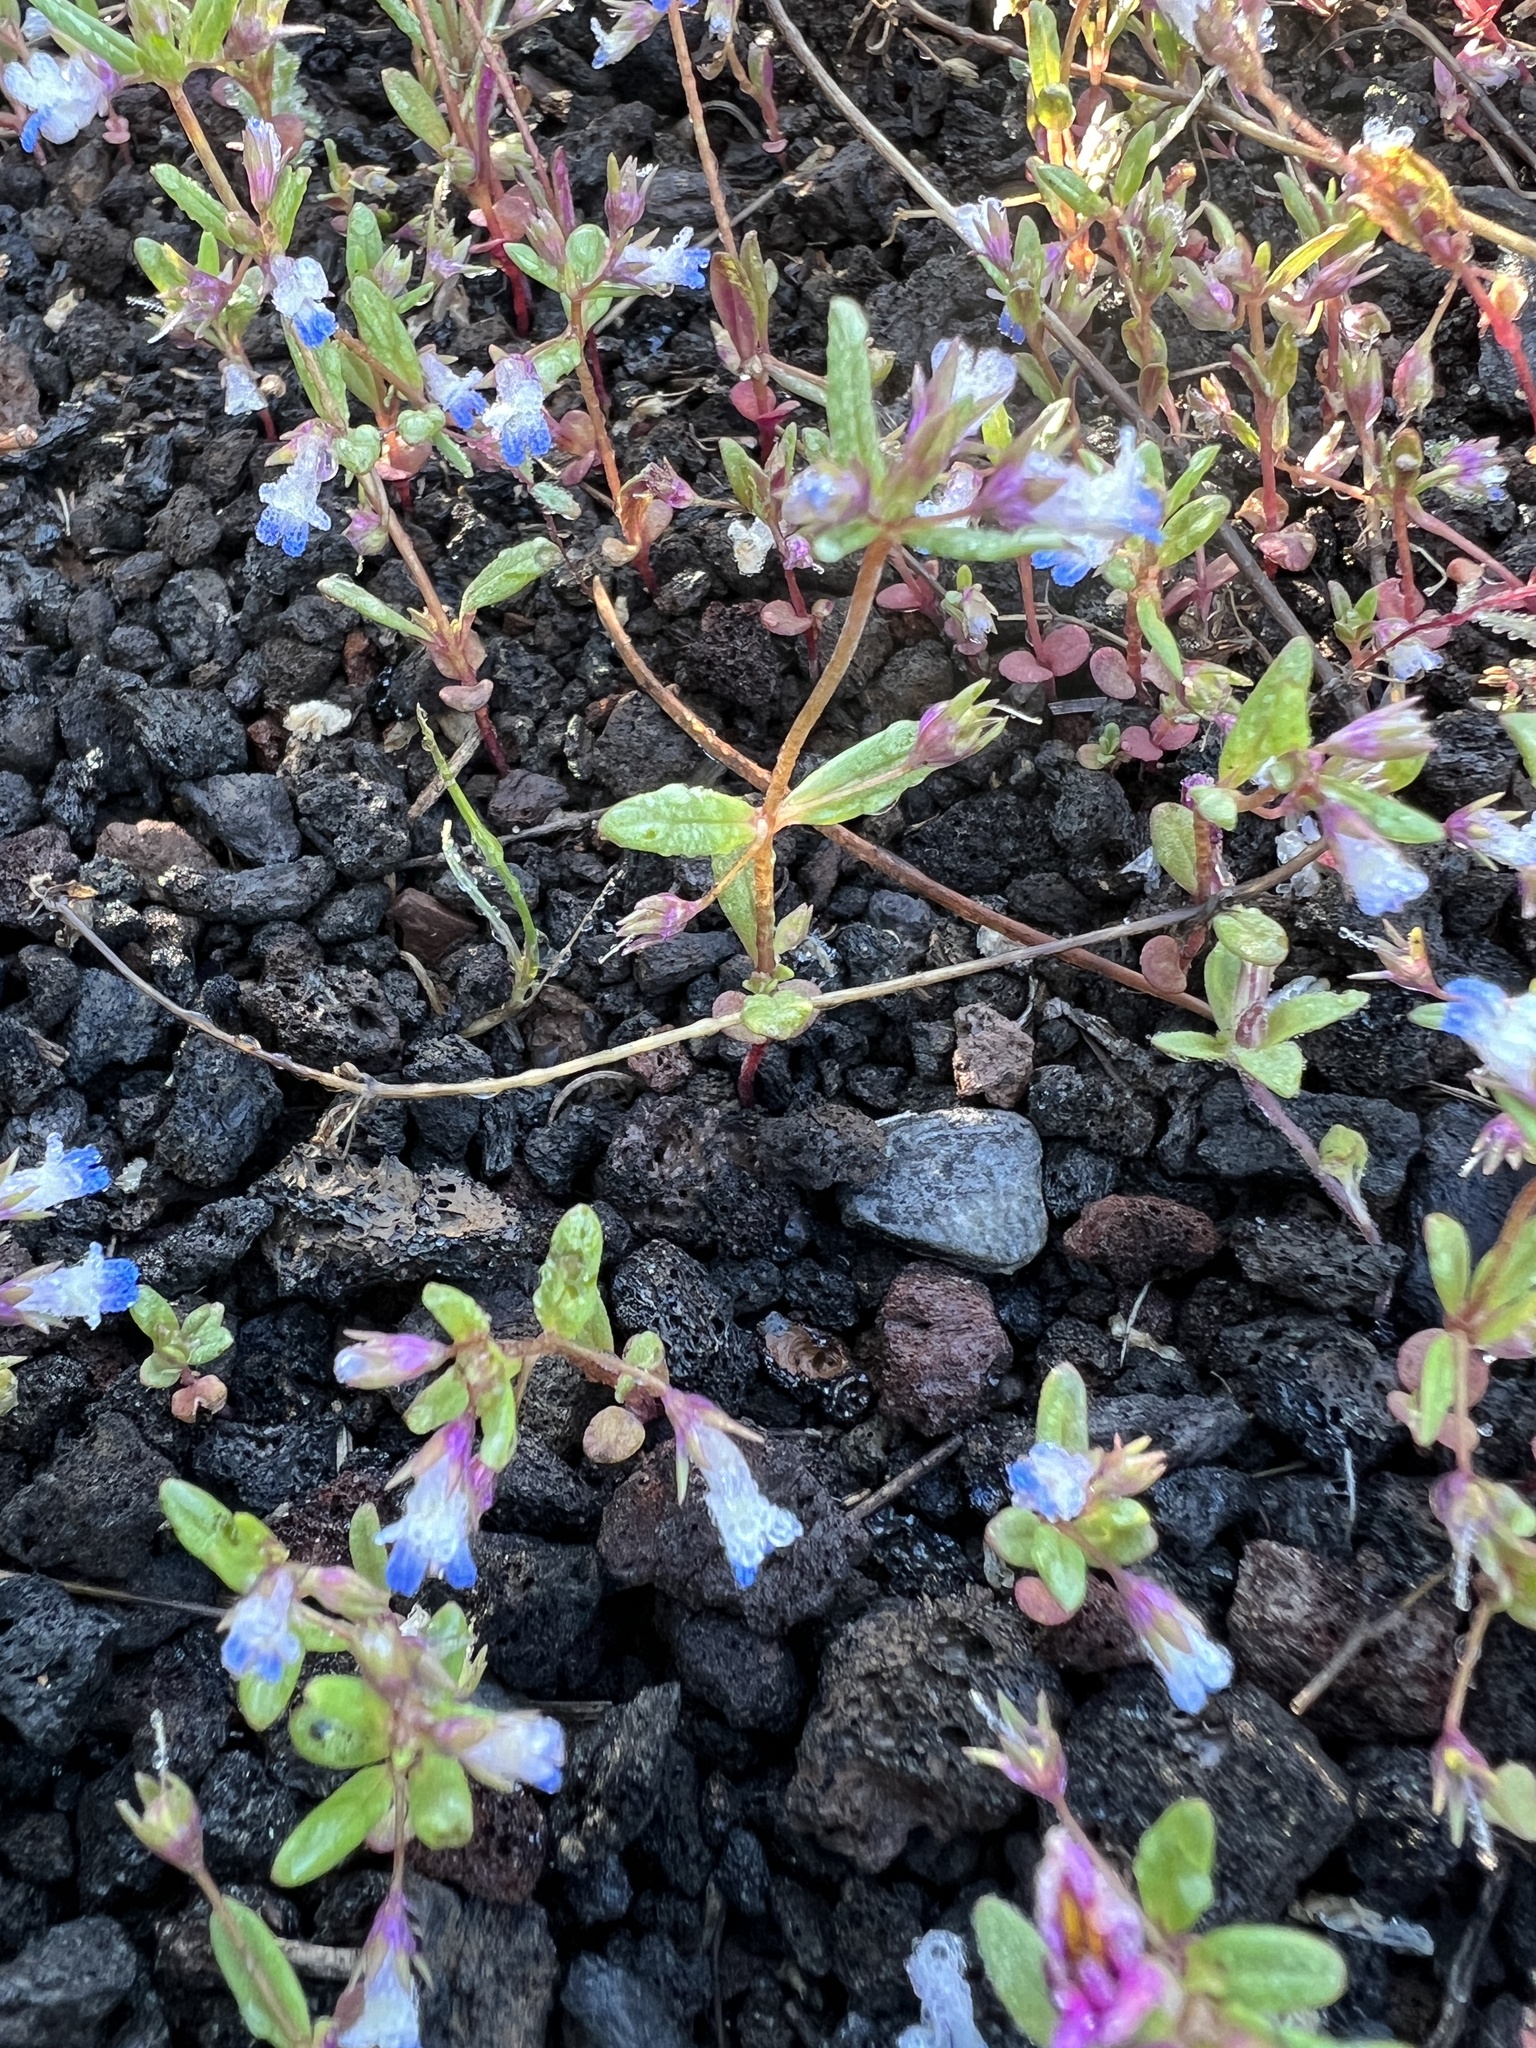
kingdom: Plantae
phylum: Tracheophyta
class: Magnoliopsida
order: Lamiales
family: Plantaginaceae
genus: Collinsia
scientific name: Collinsia parviflora
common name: Blue-lips
